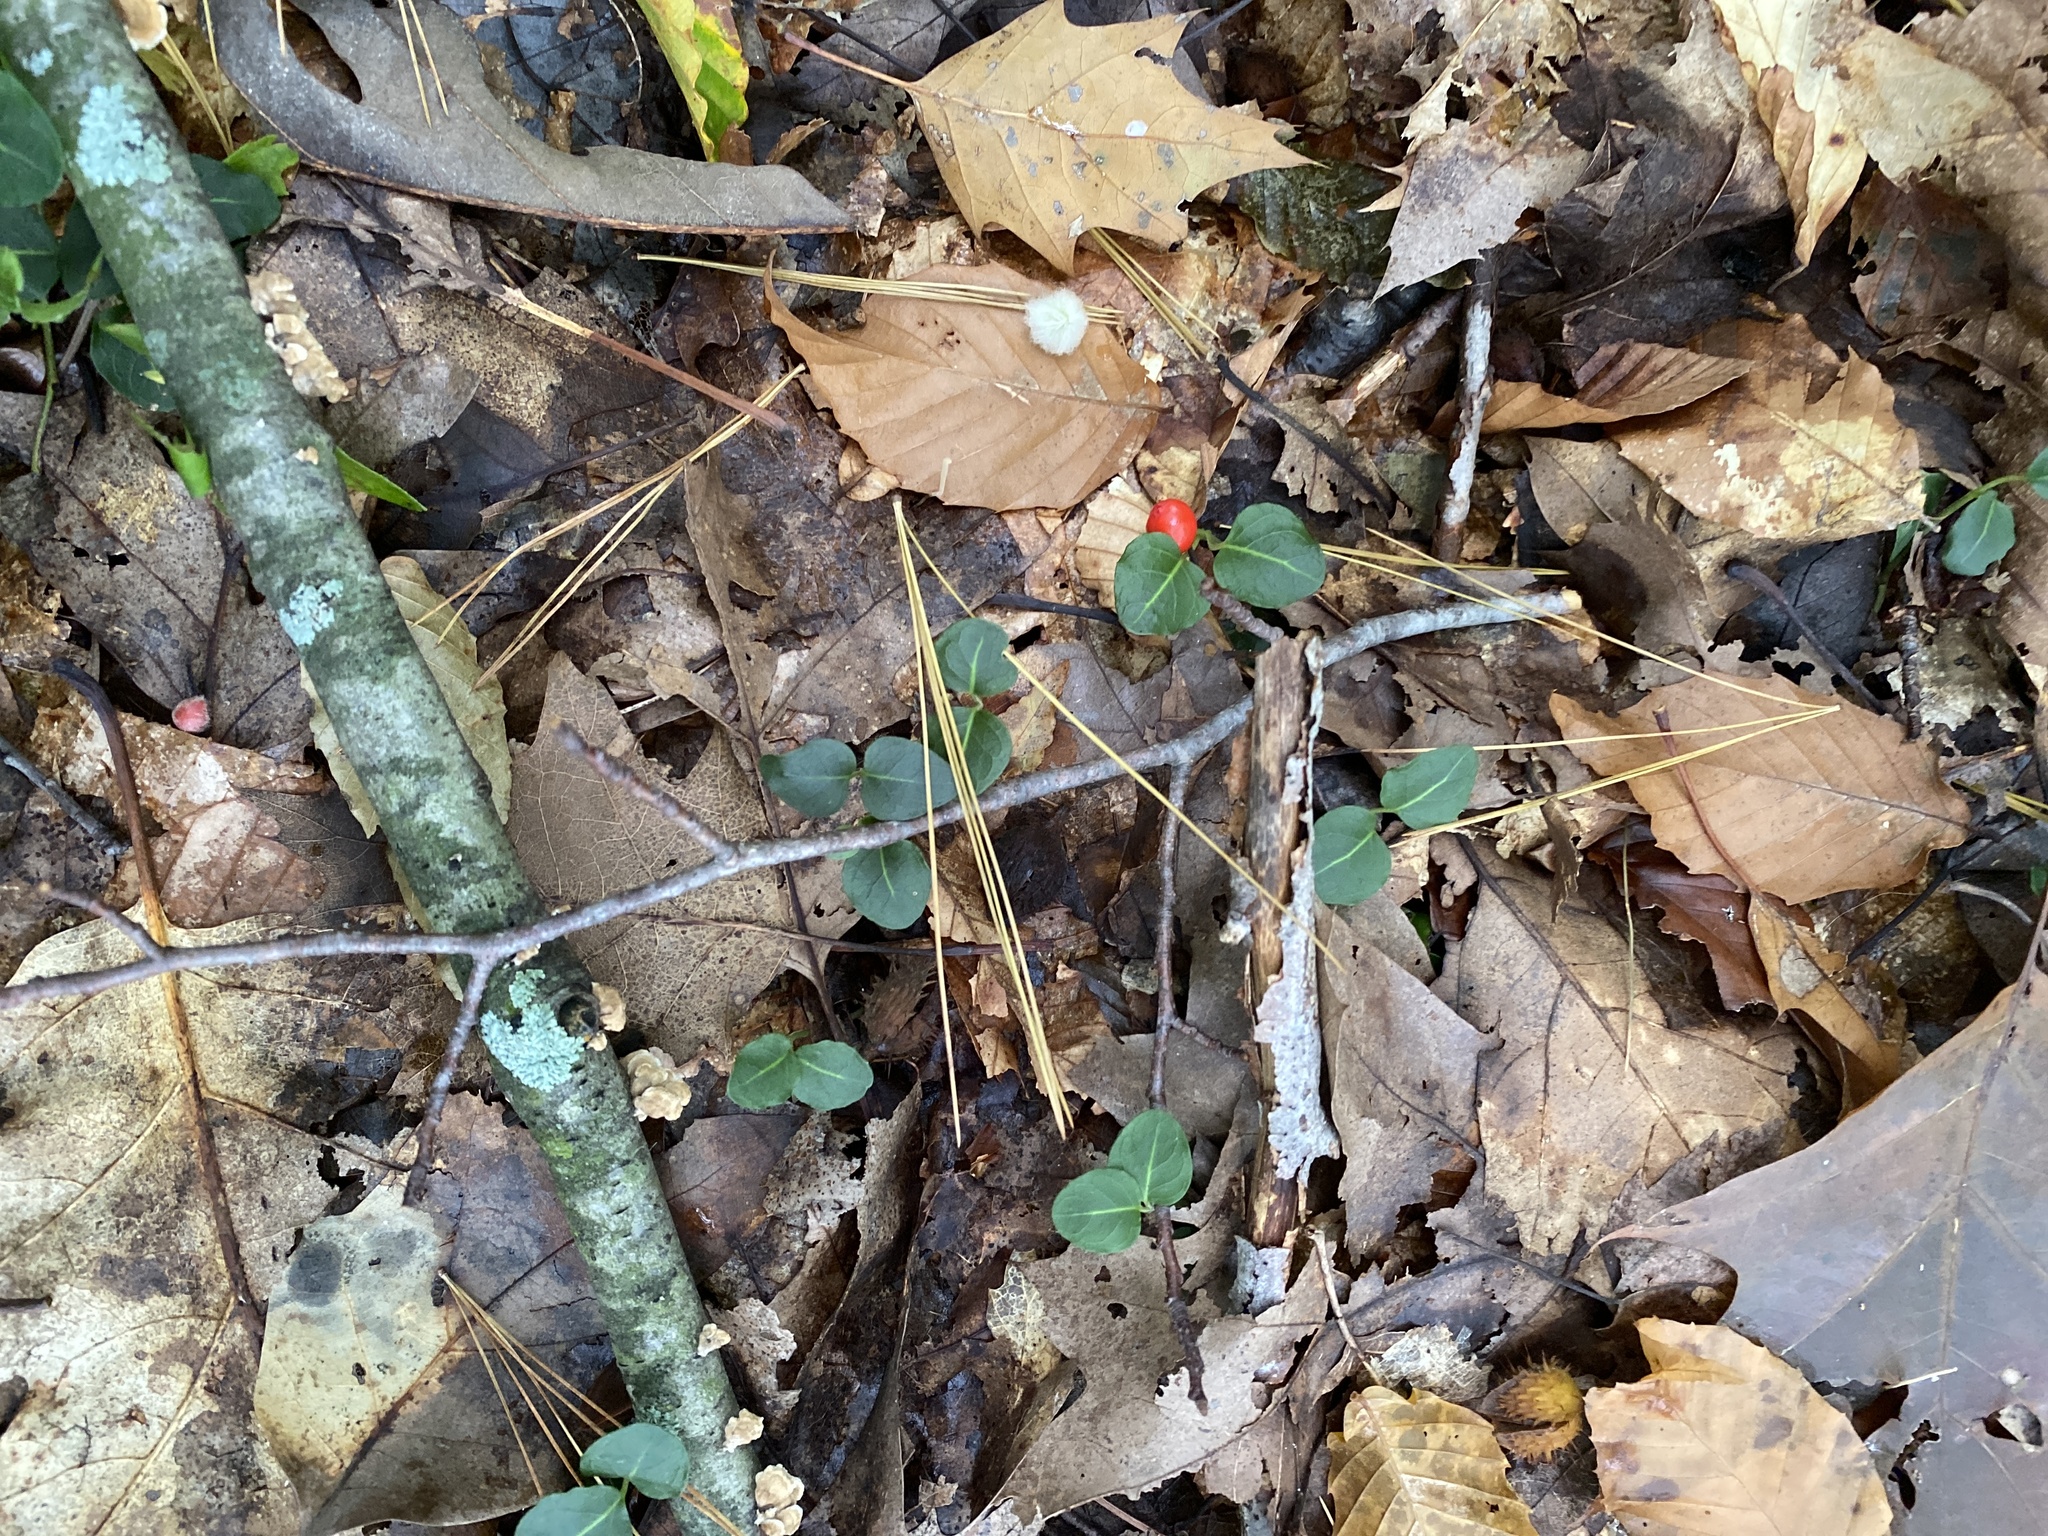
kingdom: Plantae
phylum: Tracheophyta
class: Magnoliopsida
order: Gentianales
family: Rubiaceae
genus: Mitchella
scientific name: Mitchella repens
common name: Partridge-berry
